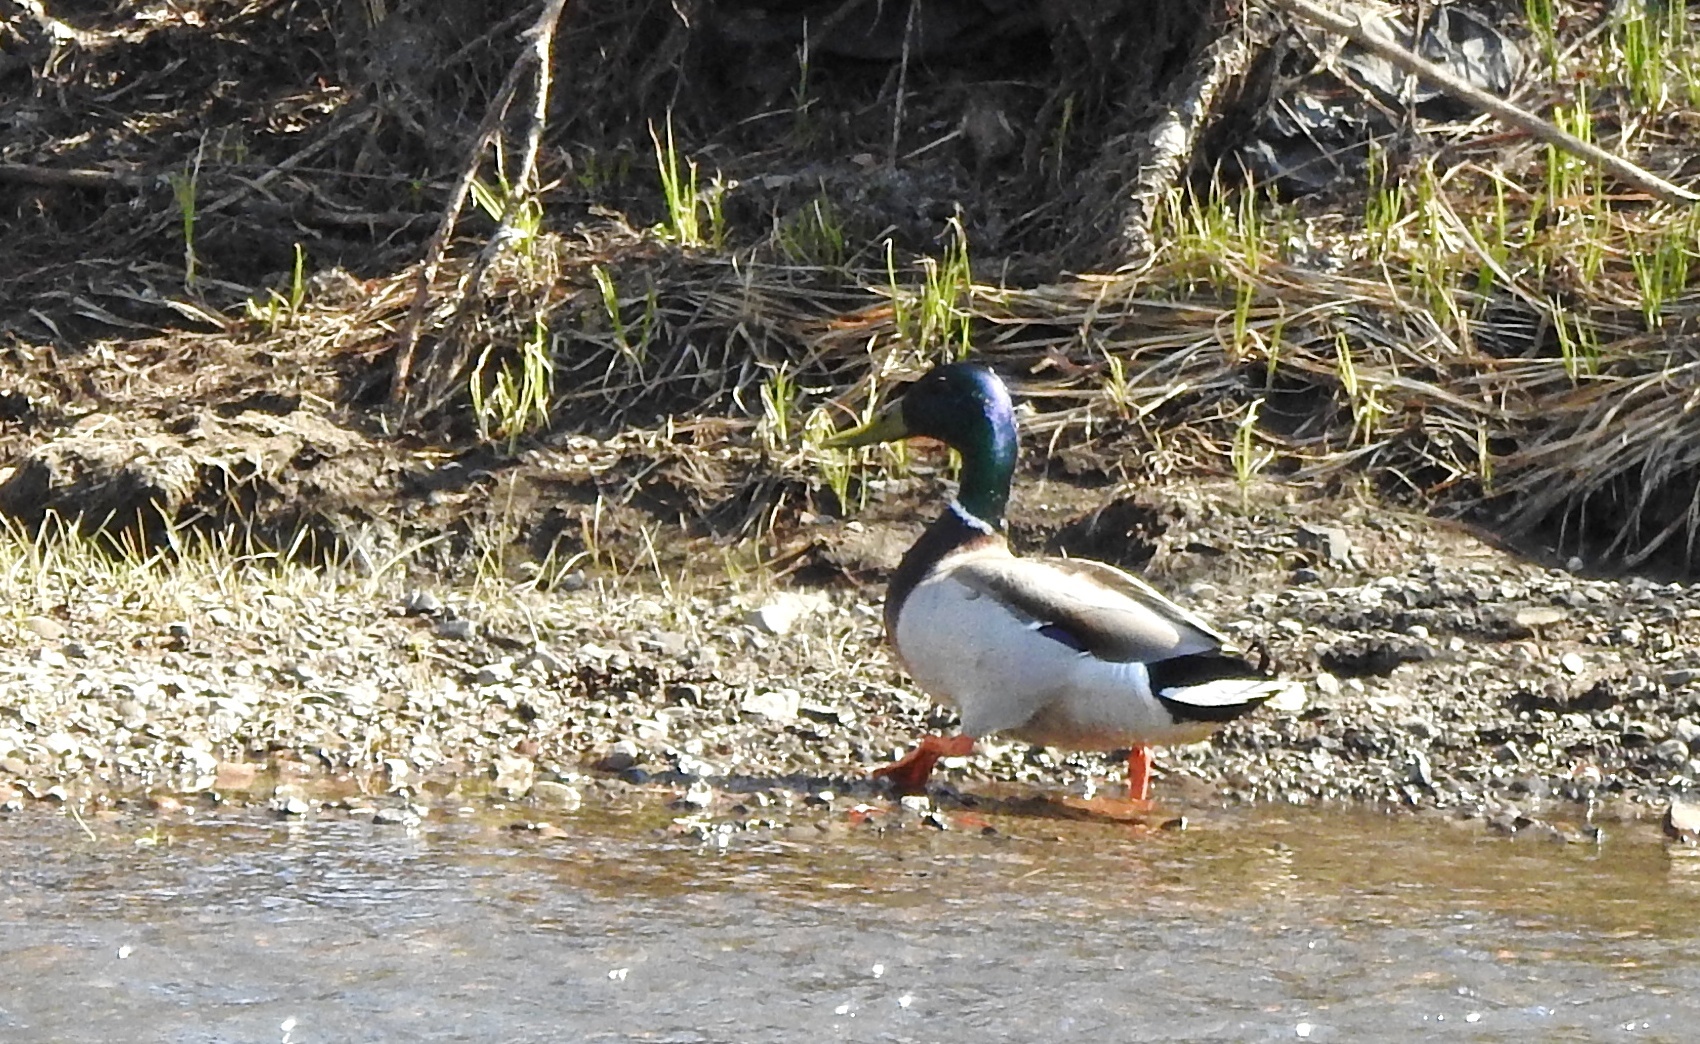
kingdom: Animalia
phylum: Chordata
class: Aves
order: Anseriformes
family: Anatidae
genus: Anas
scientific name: Anas platyrhynchos
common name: Mallard
